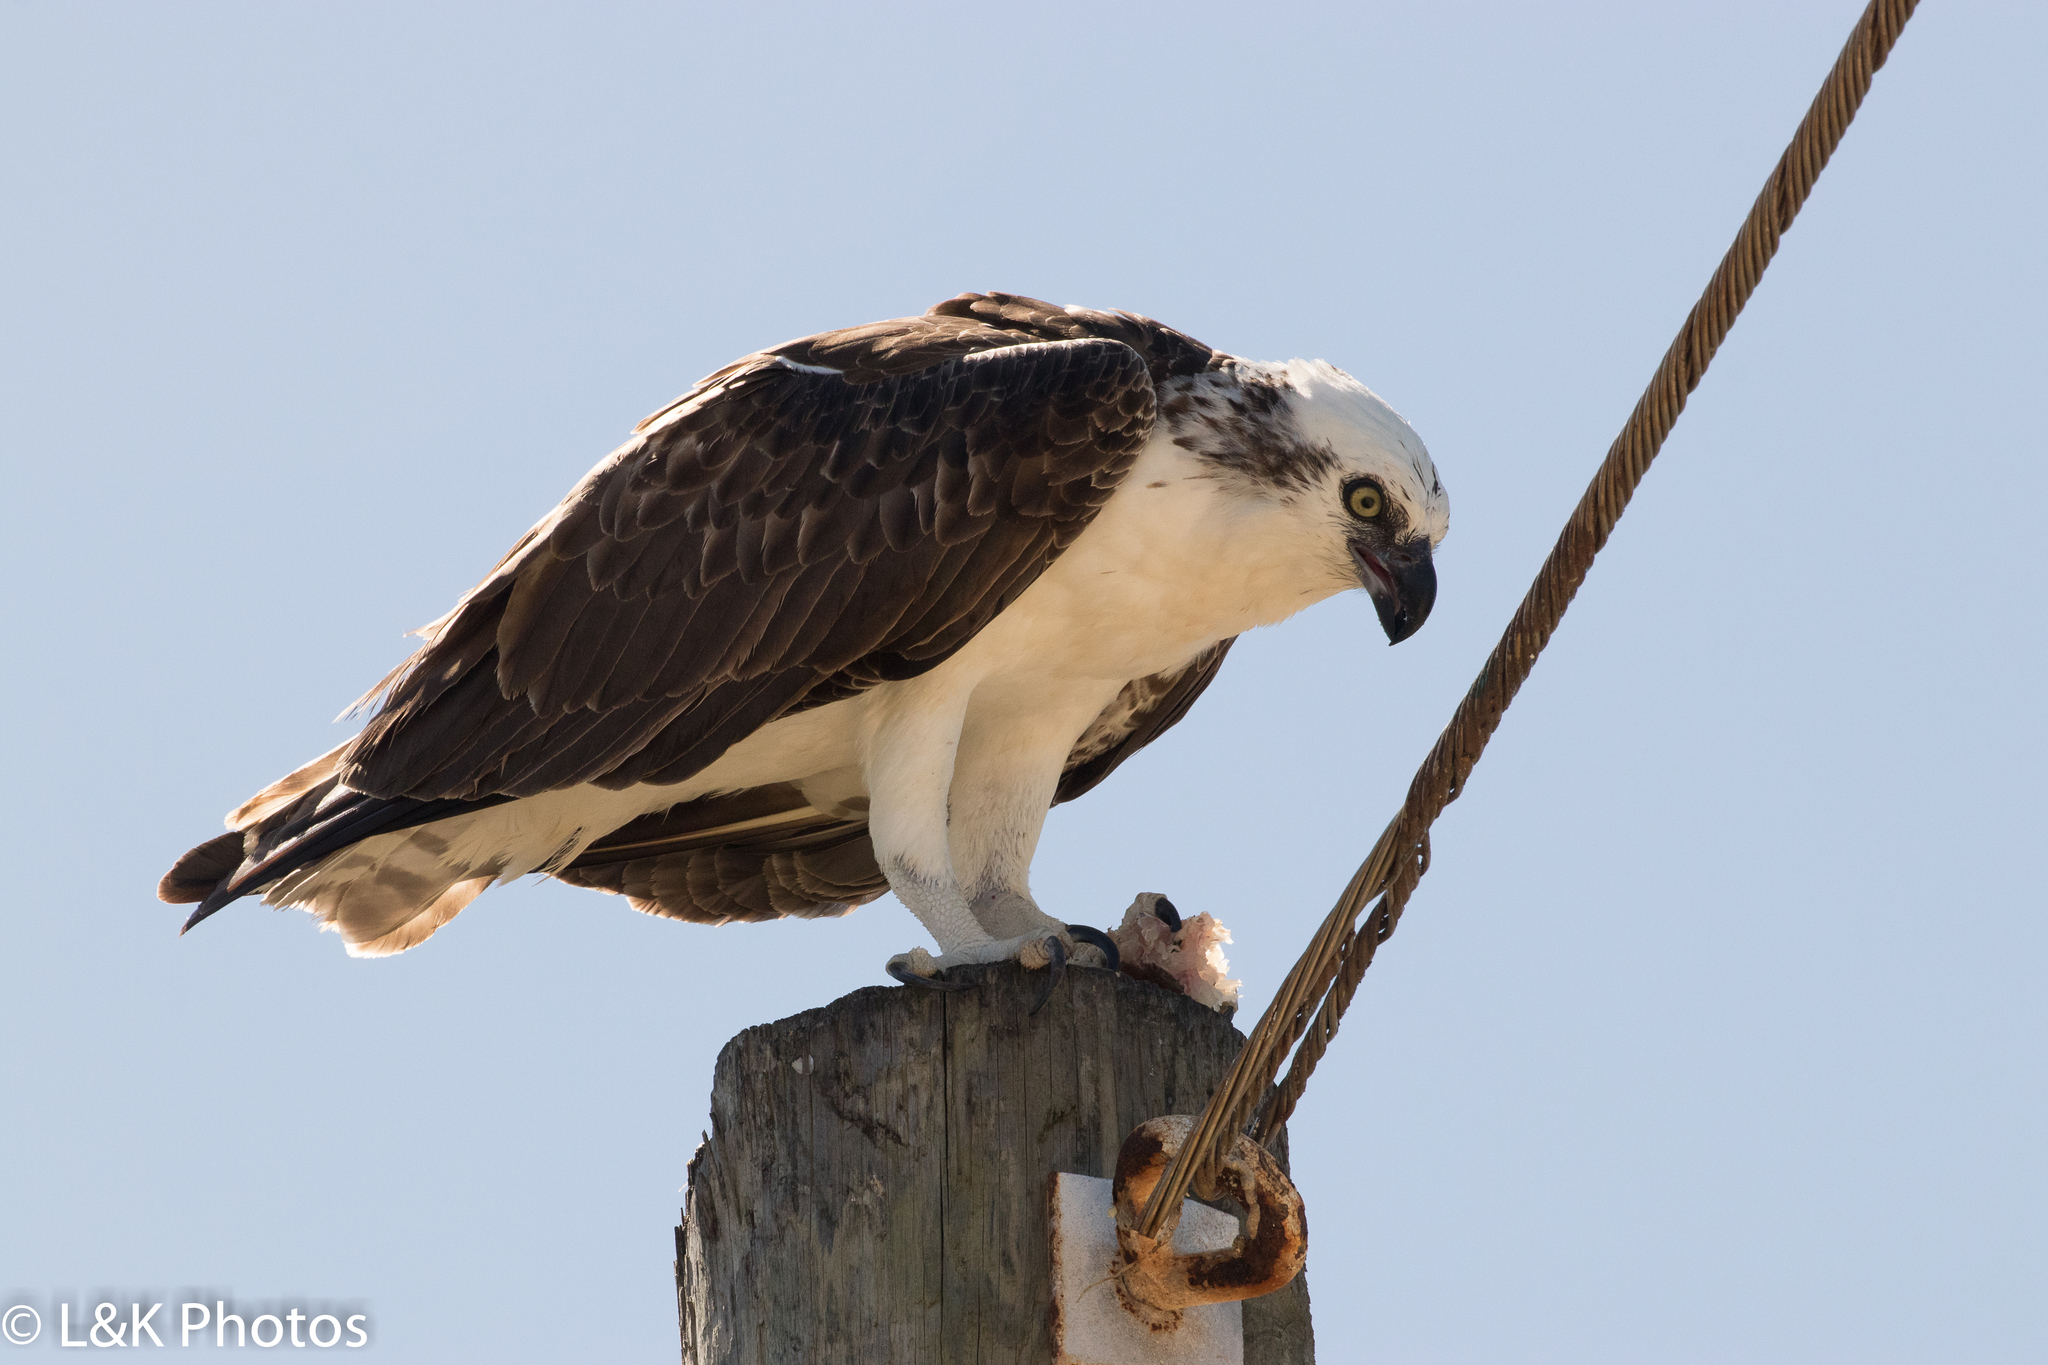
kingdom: Animalia
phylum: Chordata
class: Aves
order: Accipitriformes
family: Pandionidae
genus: Pandion
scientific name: Pandion haliaetus
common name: Osprey
